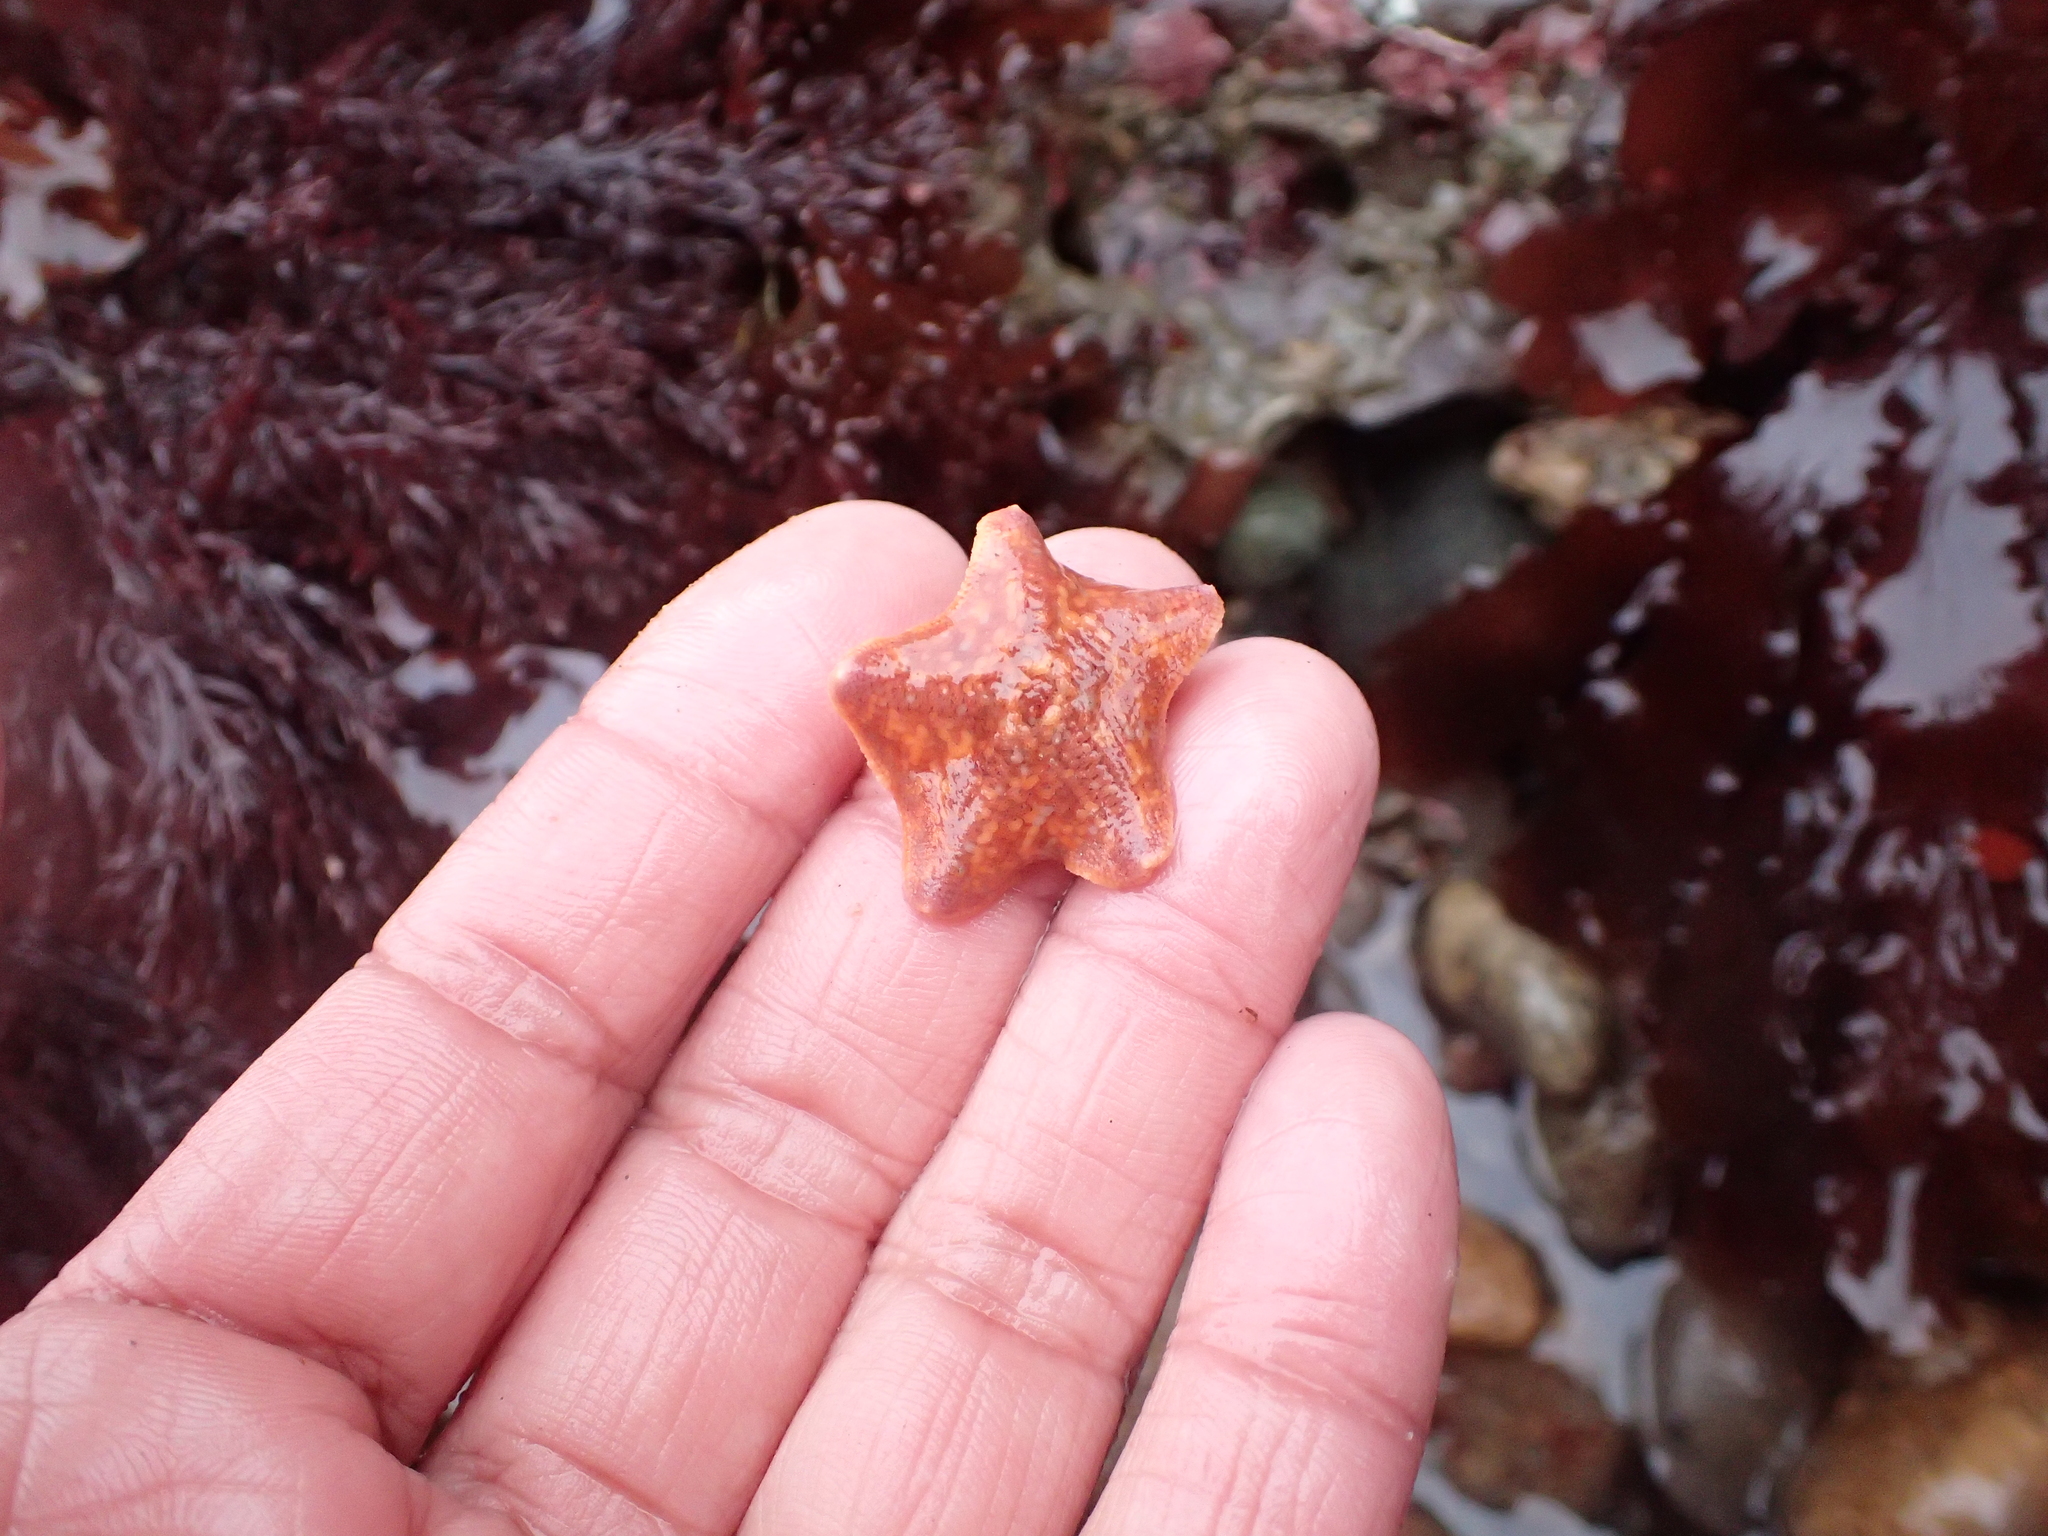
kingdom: Animalia
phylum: Echinodermata
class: Asteroidea
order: Valvatida
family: Asterinidae
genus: Patiria
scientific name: Patiria miniata
